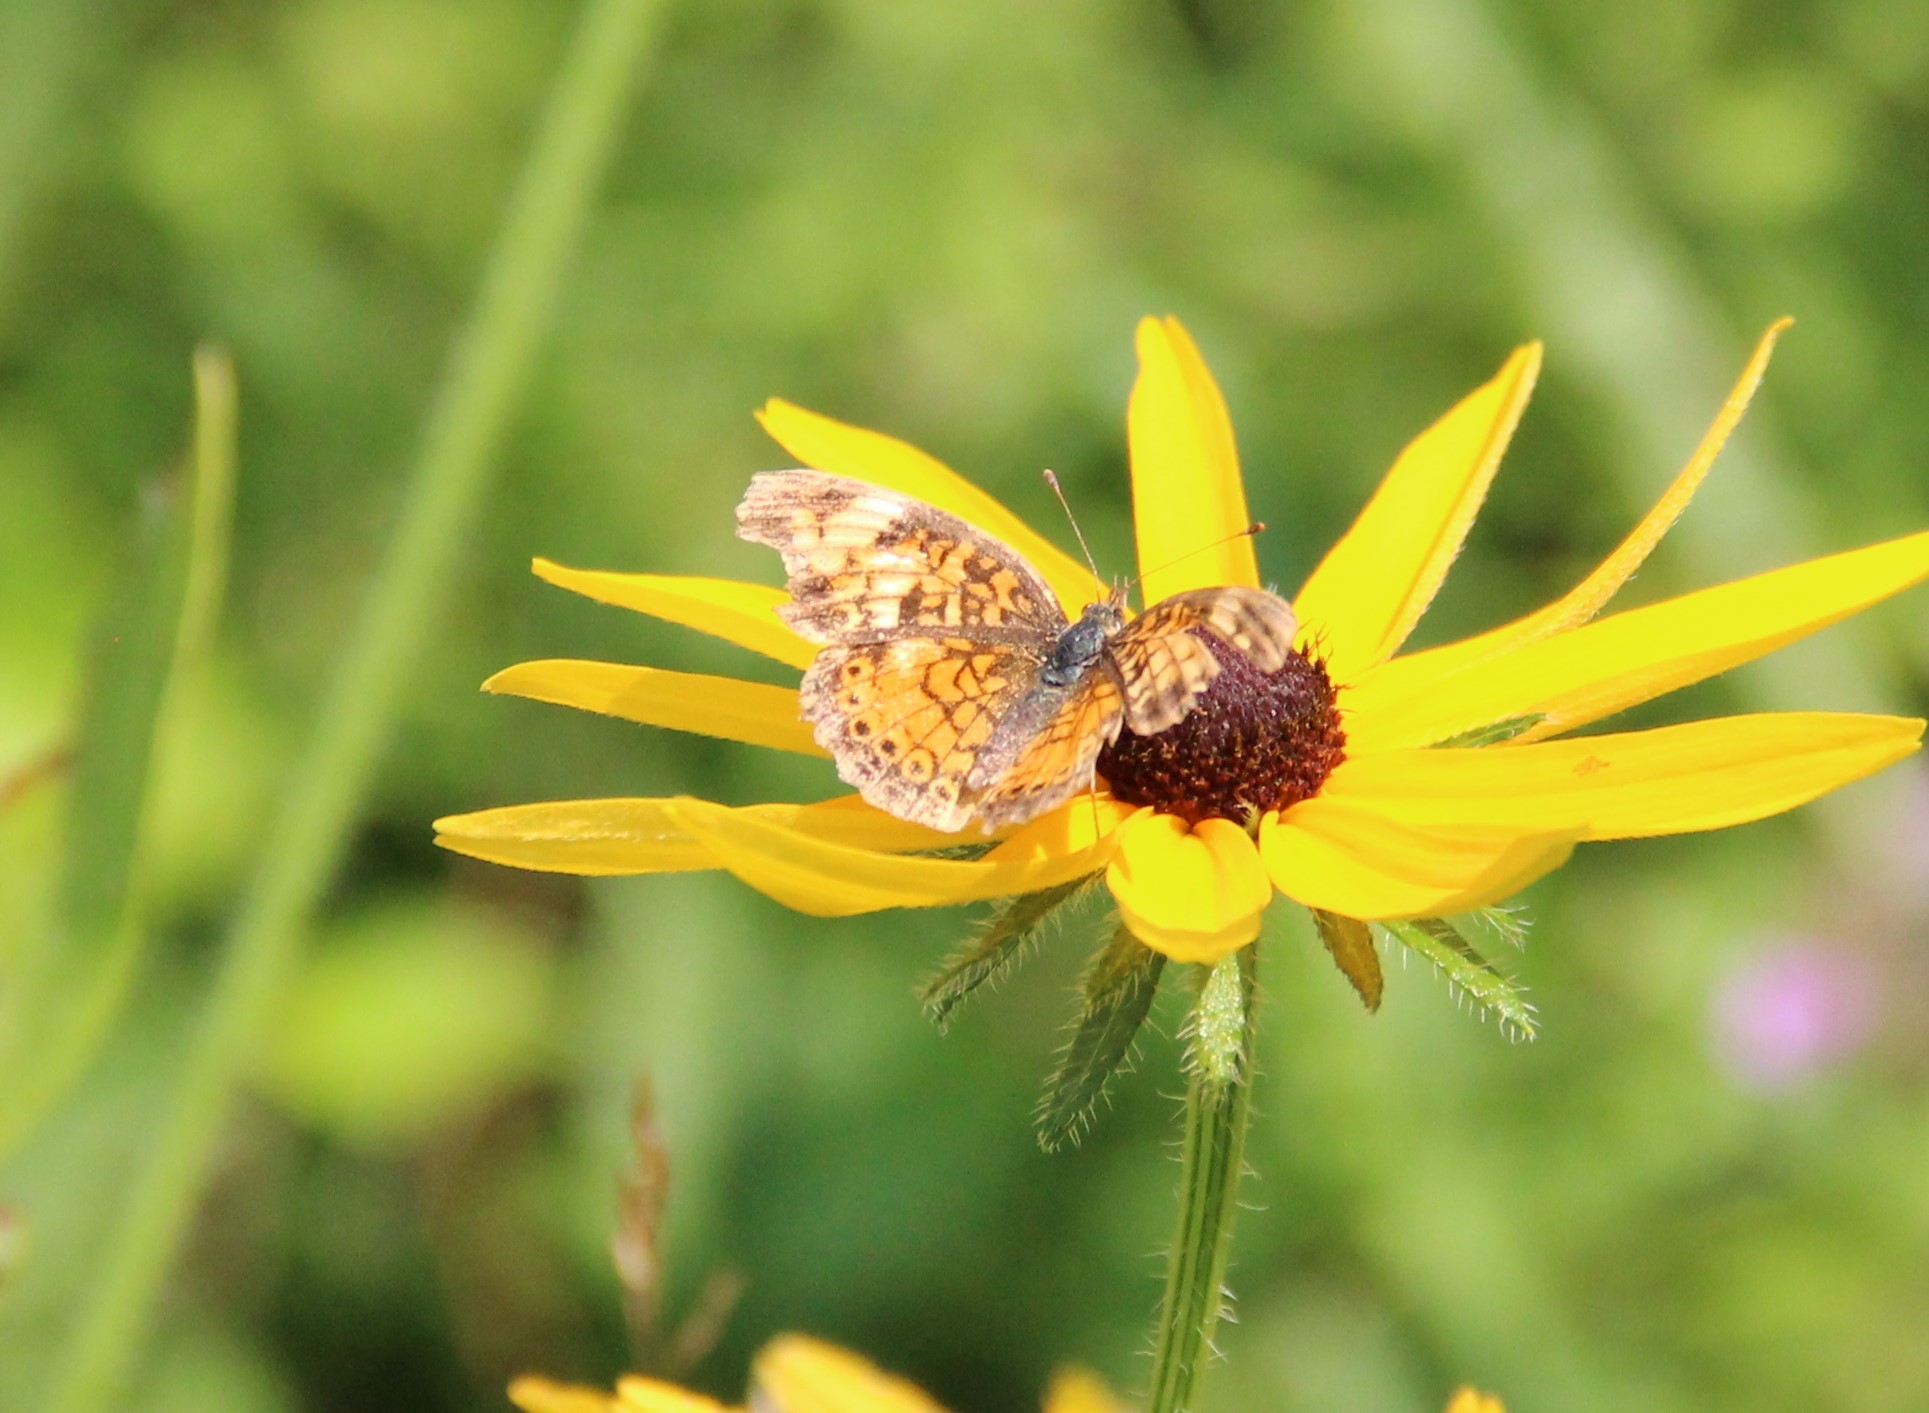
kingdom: Animalia
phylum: Arthropoda
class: Insecta
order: Lepidoptera
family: Nymphalidae
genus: Phyciodes
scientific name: Phyciodes tharos
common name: Pearl crescent
